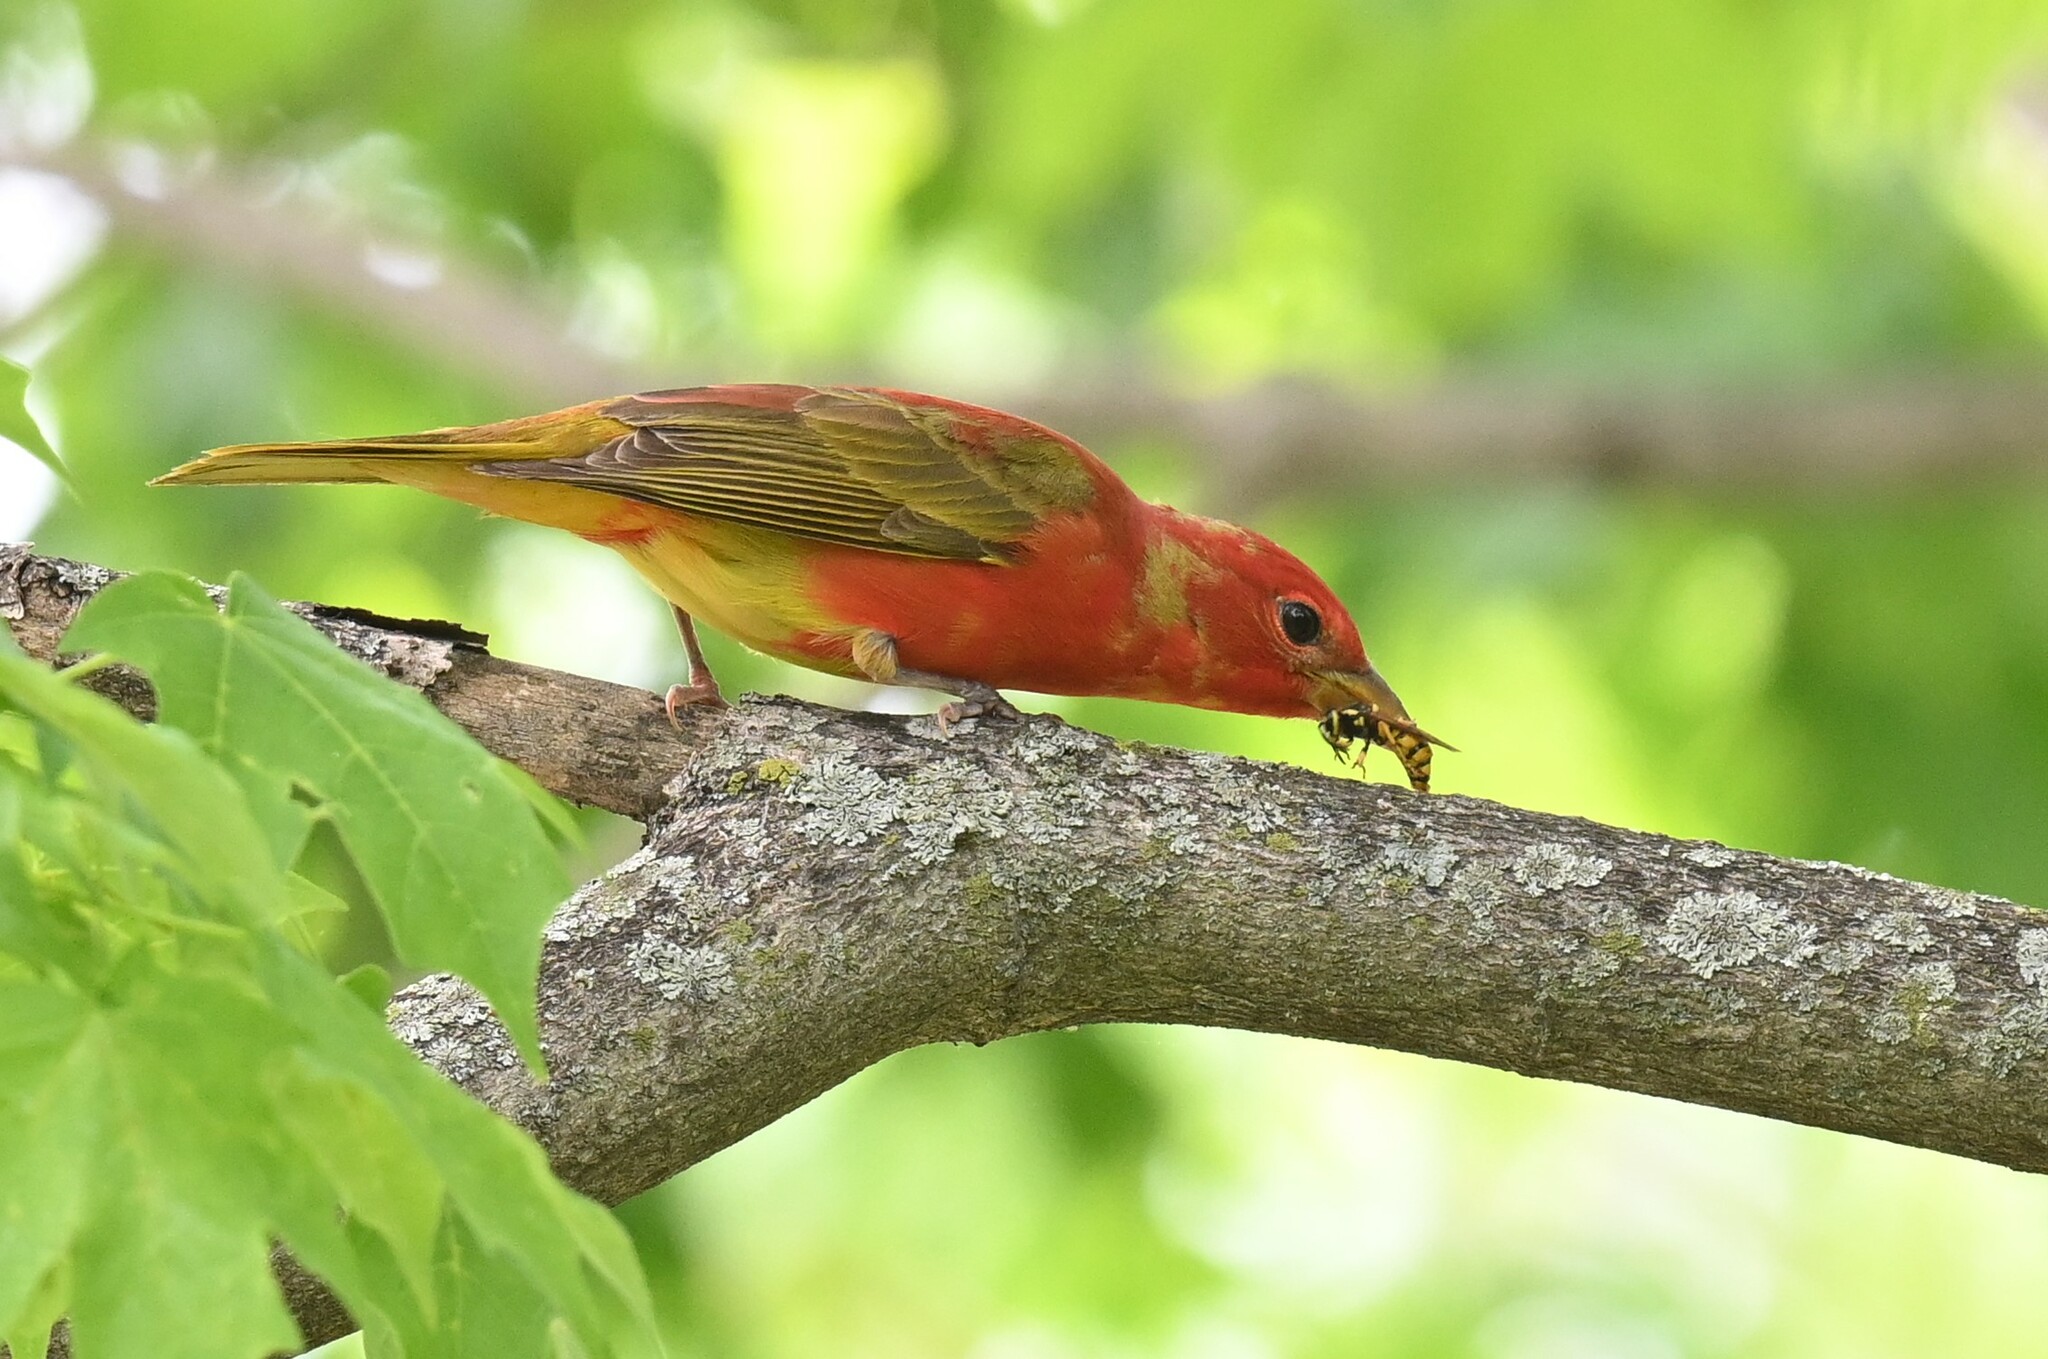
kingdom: Animalia
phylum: Chordata
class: Aves
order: Passeriformes
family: Cardinalidae
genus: Piranga
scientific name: Piranga rubra
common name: Summer tanager
